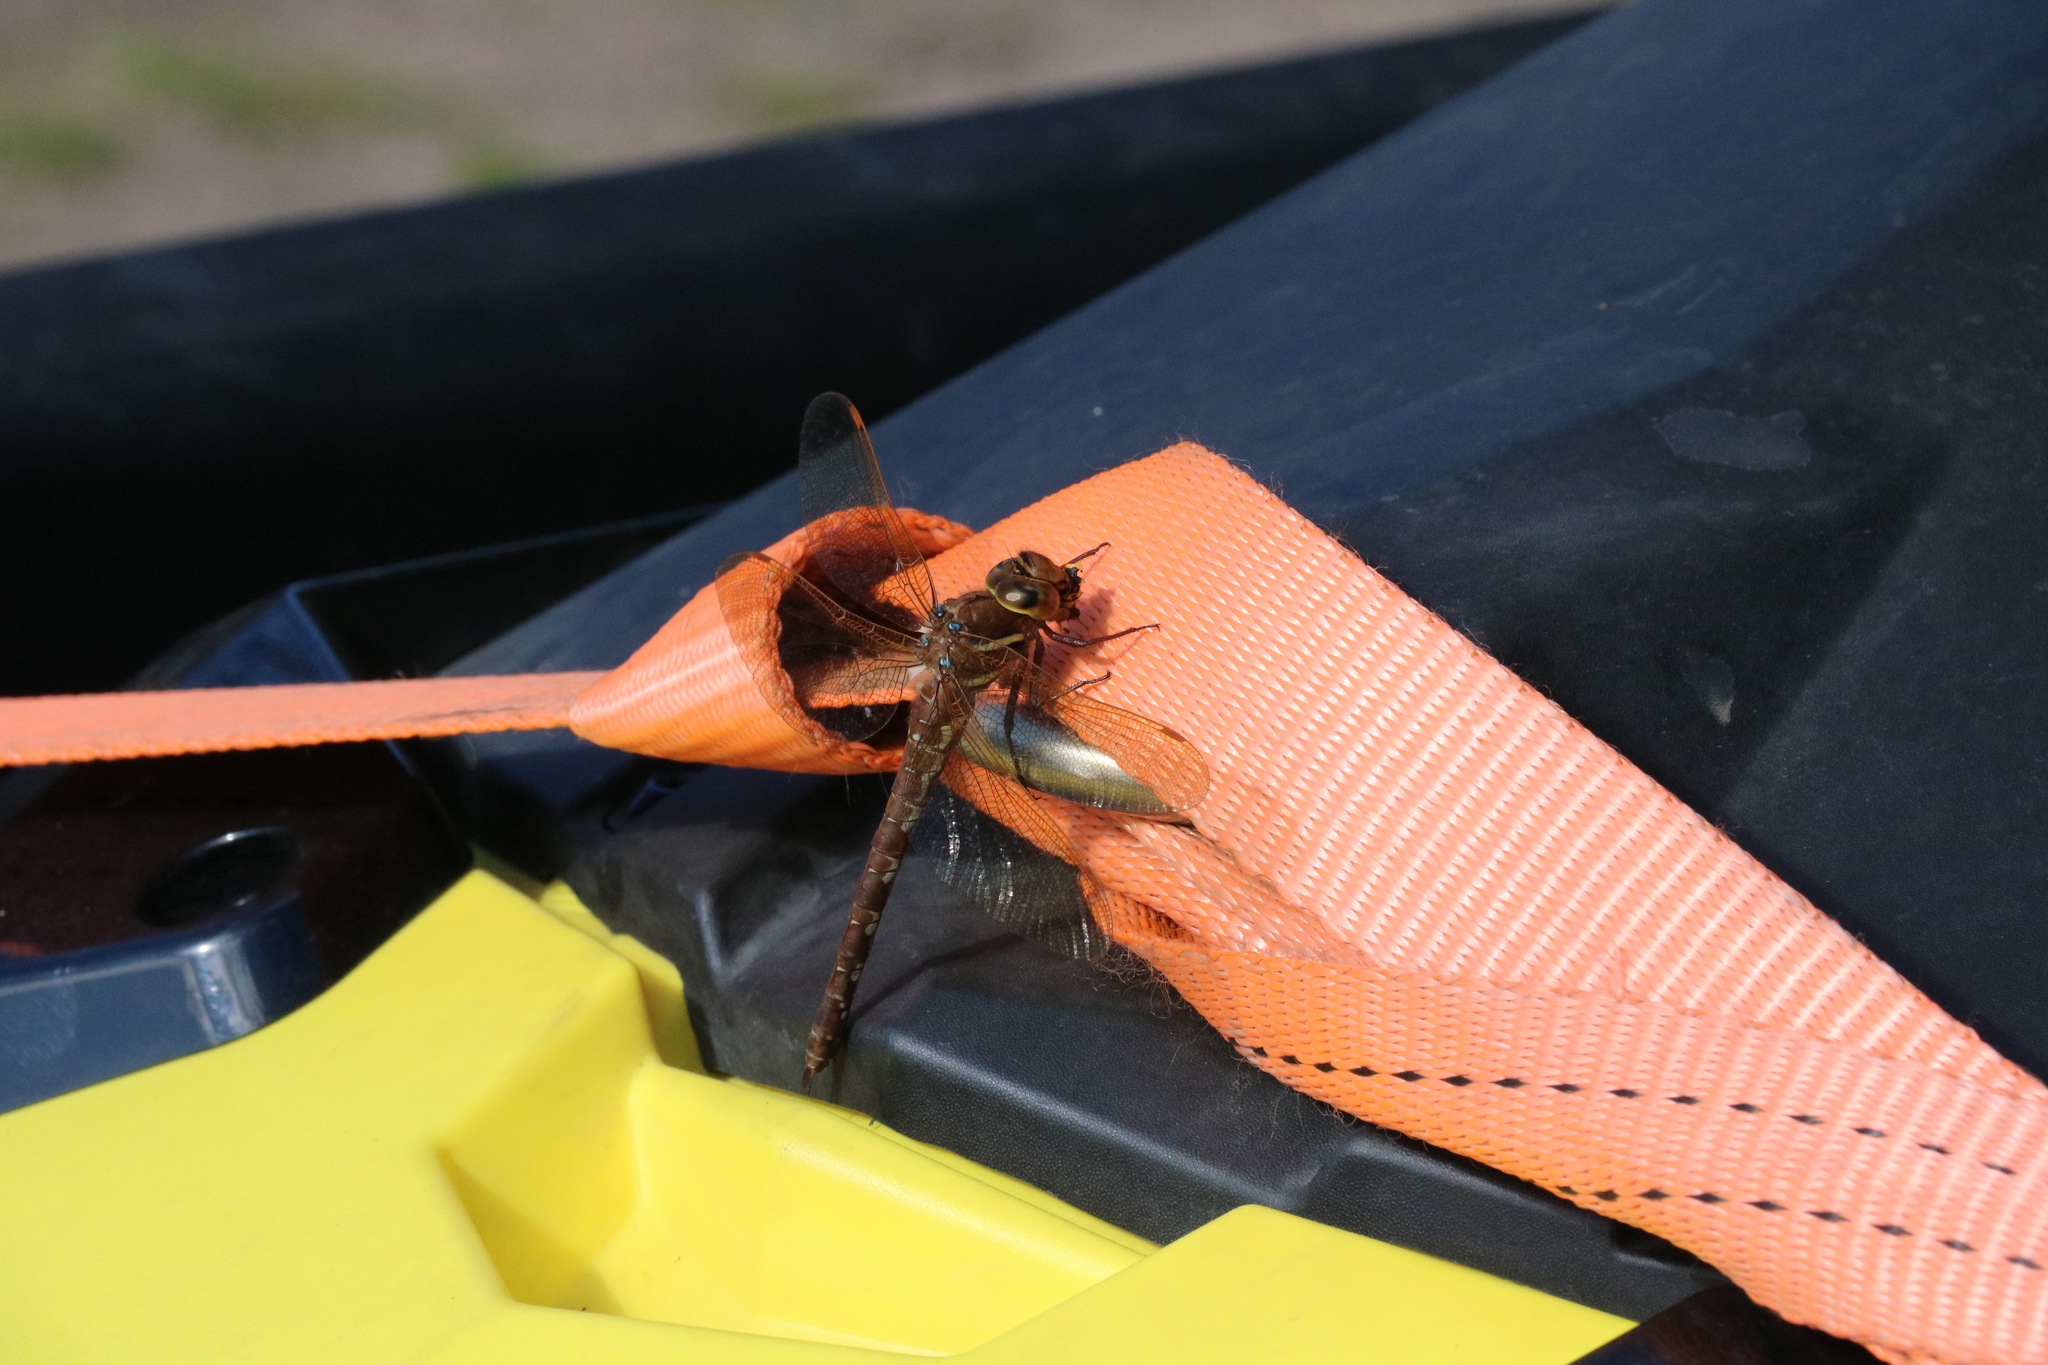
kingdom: Animalia
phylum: Arthropoda
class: Insecta
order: Odonata
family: Aeshnidae
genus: Aeshna
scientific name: Aeshna grandis
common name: Brown hawker
